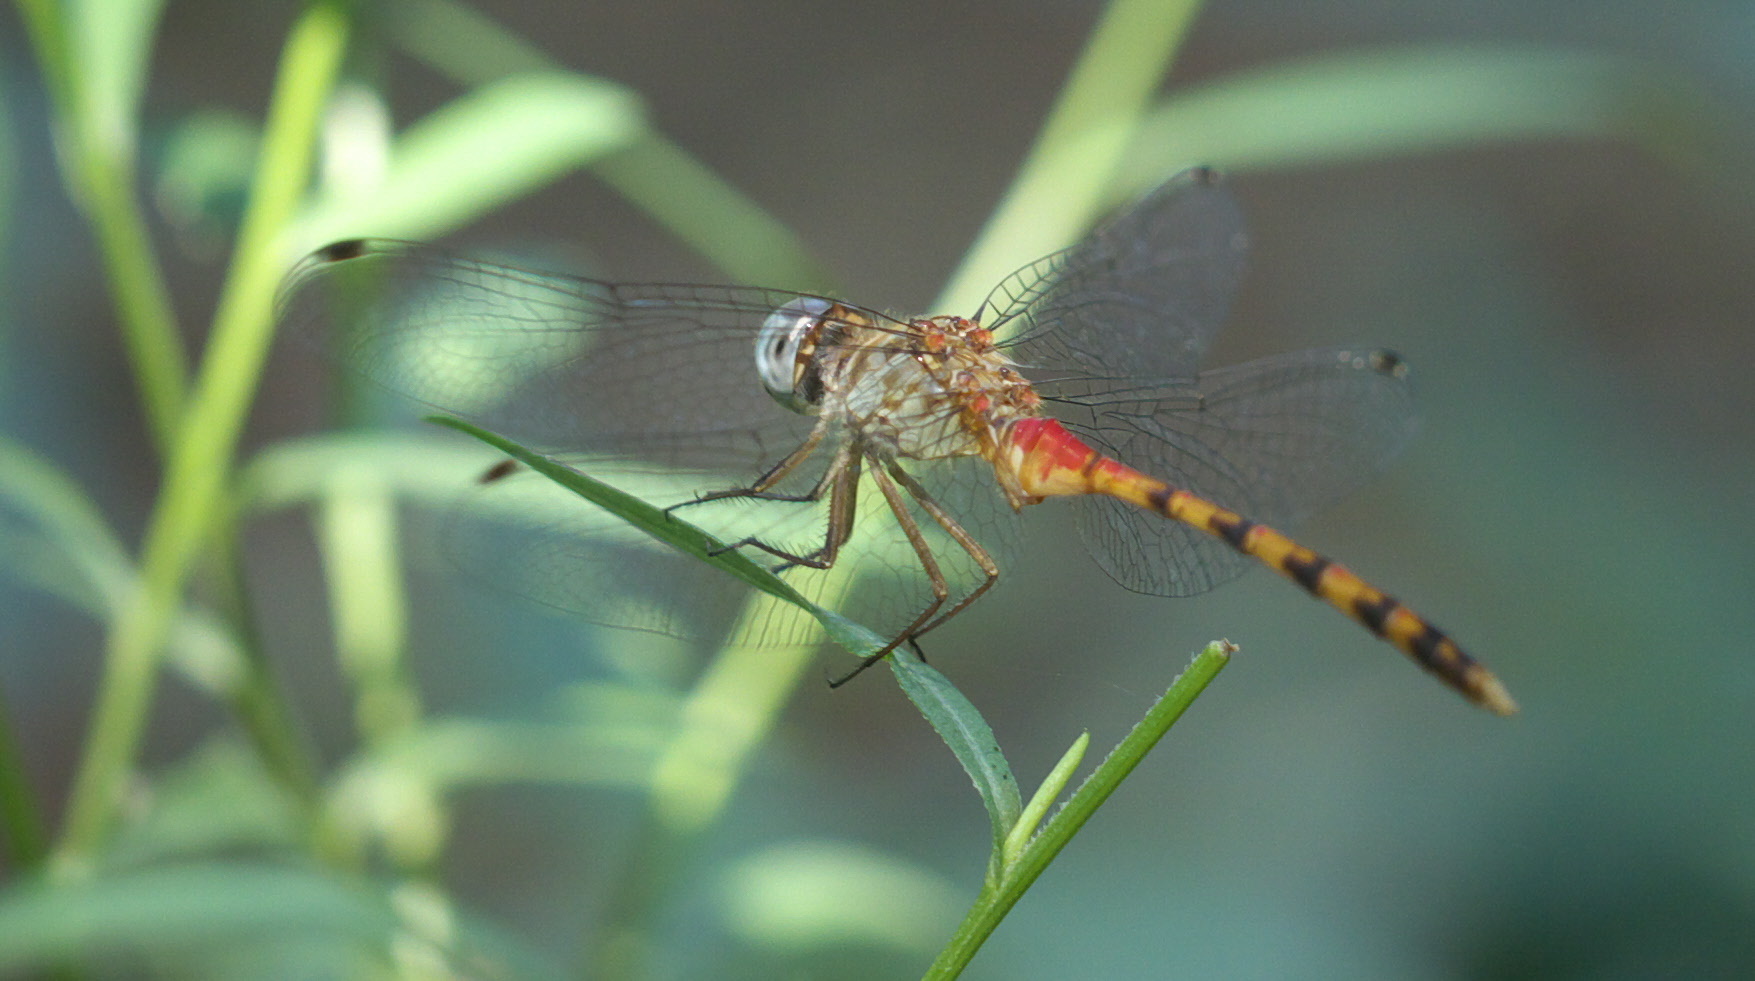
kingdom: Animalia
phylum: Arthropoda
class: Insecta
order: Odonata
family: Libellulidae
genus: Sympetrum
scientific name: Sympetrum ambiguum
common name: Blue-faced meadowhawk
